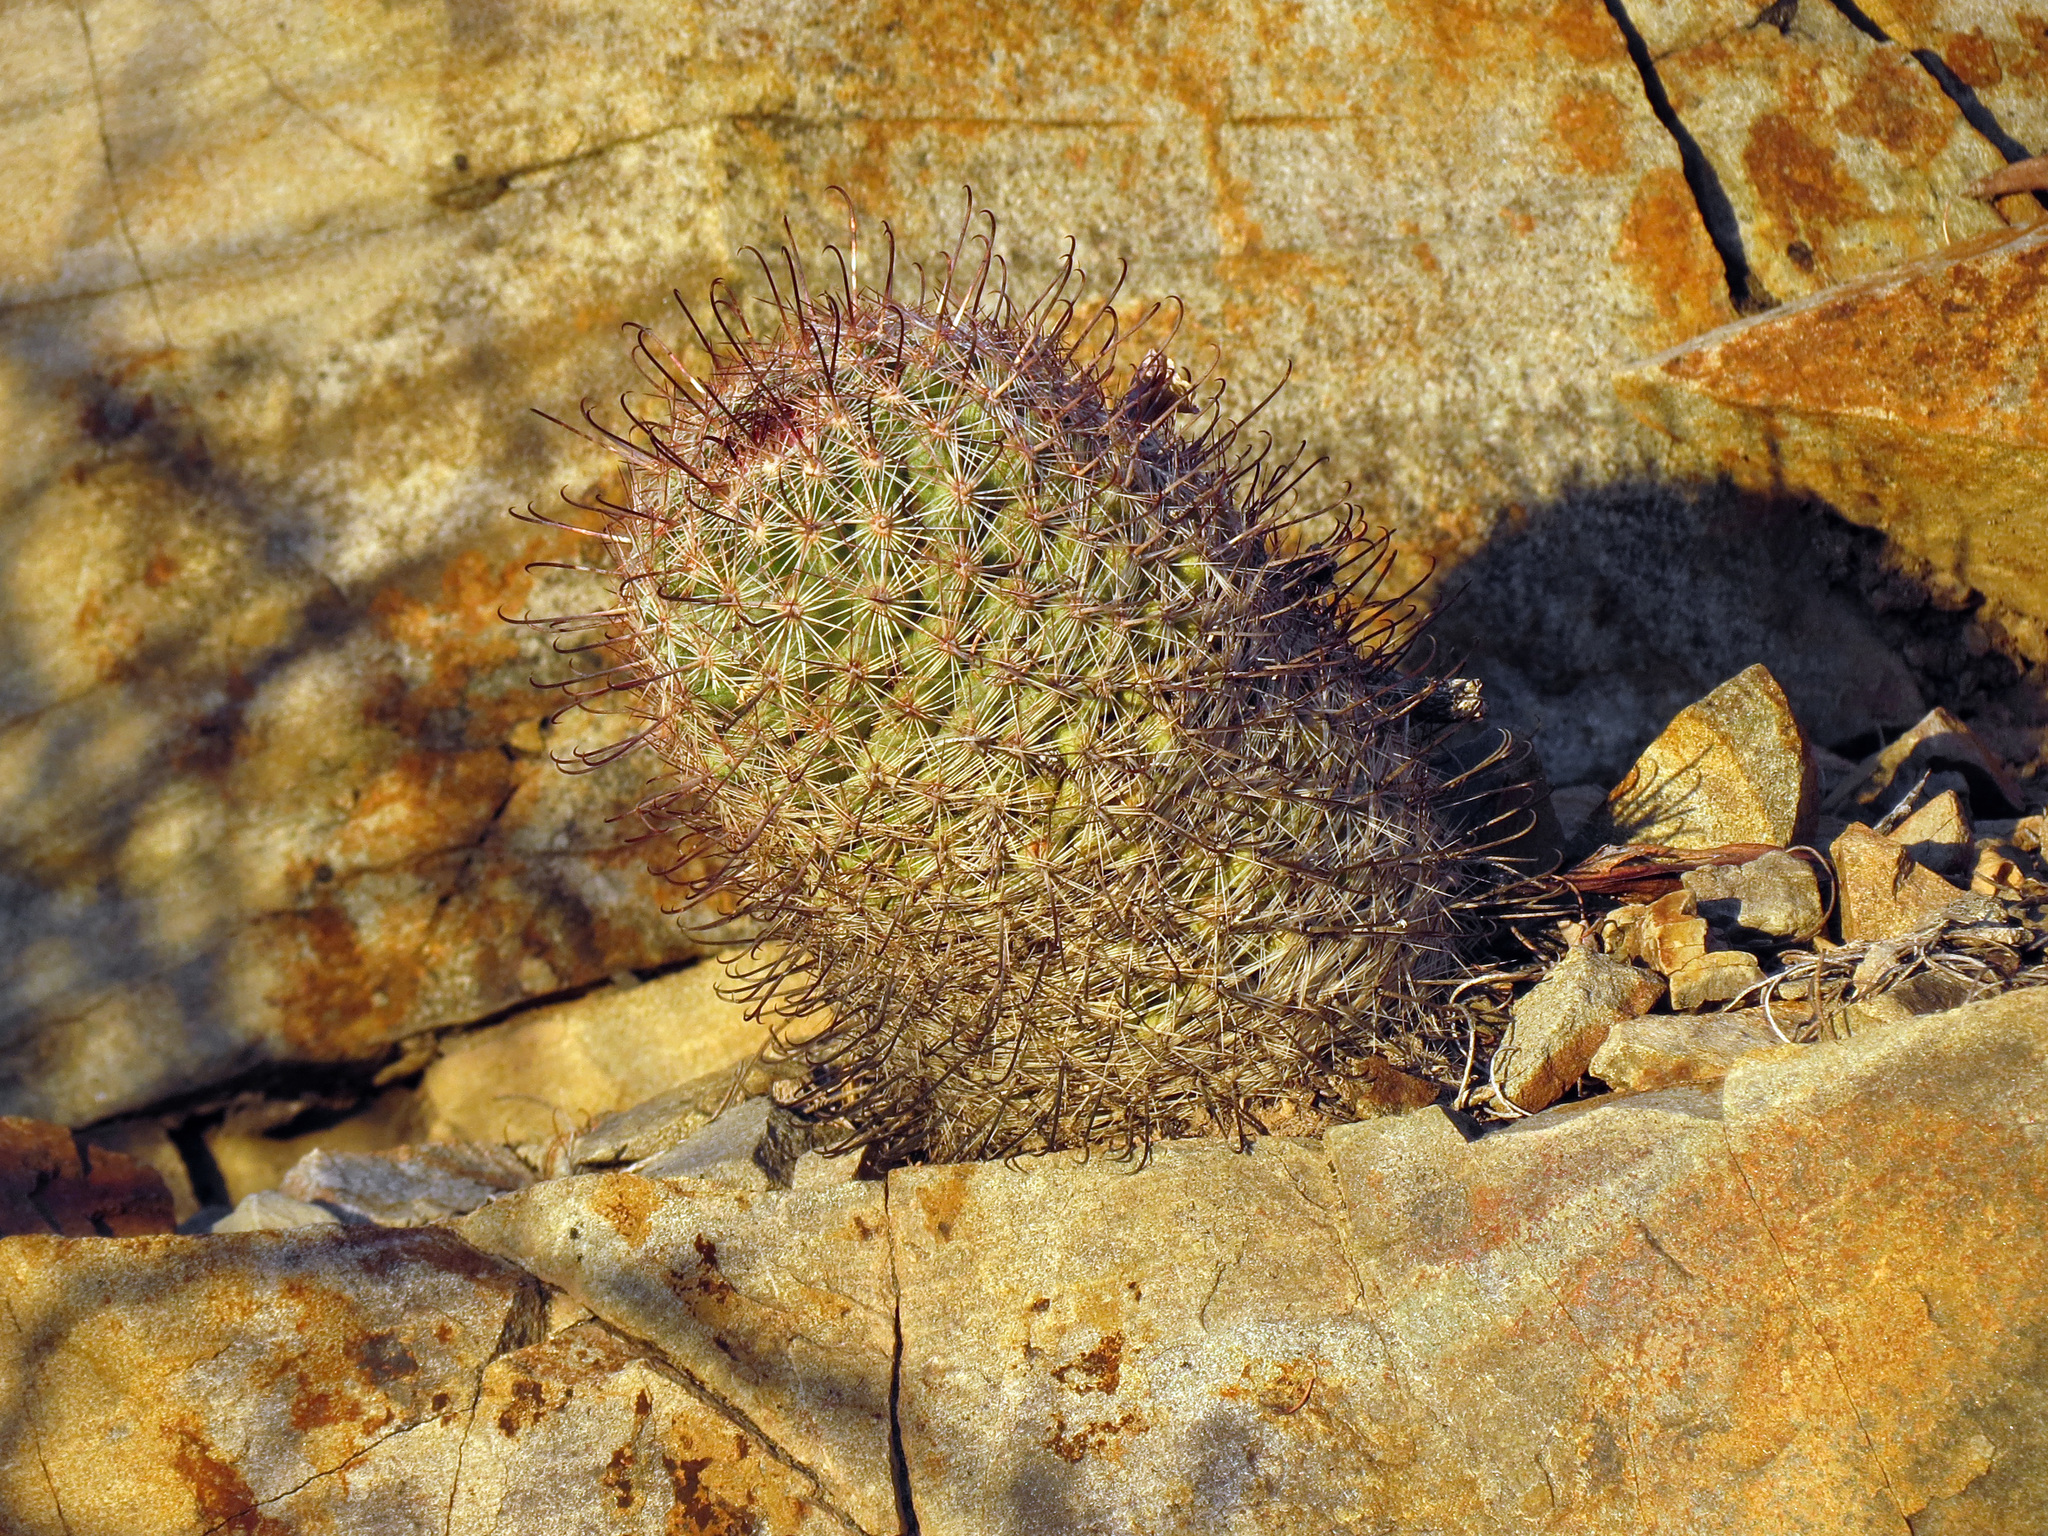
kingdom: Plantae
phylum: Tracheophyta
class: Magnoliopsida
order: Caryophyllales
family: Cactaceae
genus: Cochemiea
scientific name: Cochemiea grahamii
